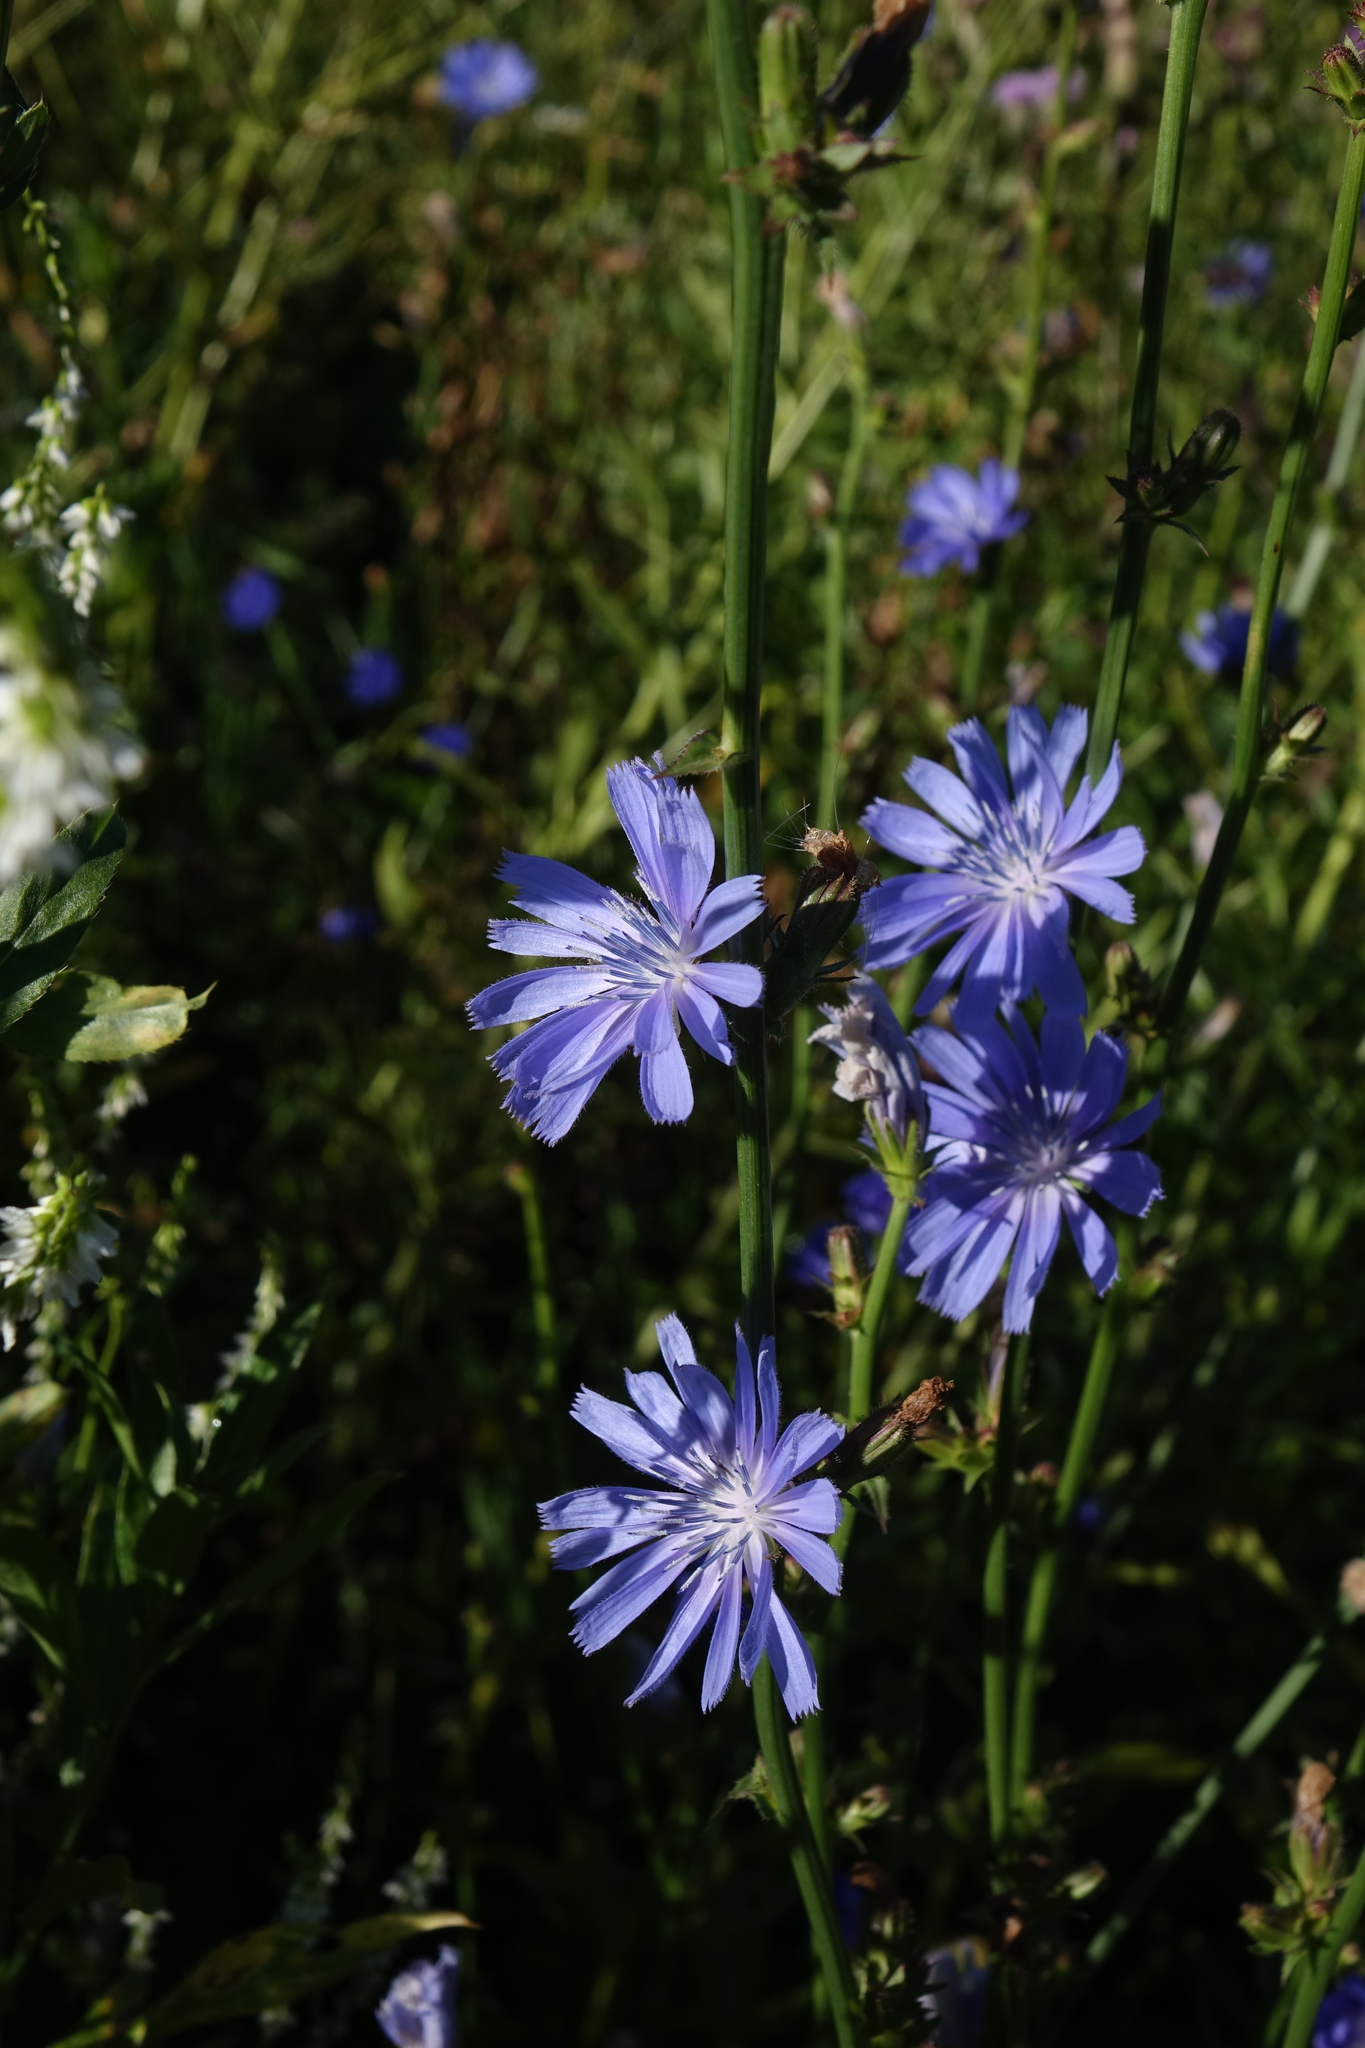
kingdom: Plantae
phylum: Tracheophyta
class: Magnoliopsida
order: Asterales
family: Asteraceae
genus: Cichorium
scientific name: Cichorium intybus
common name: Chicory
